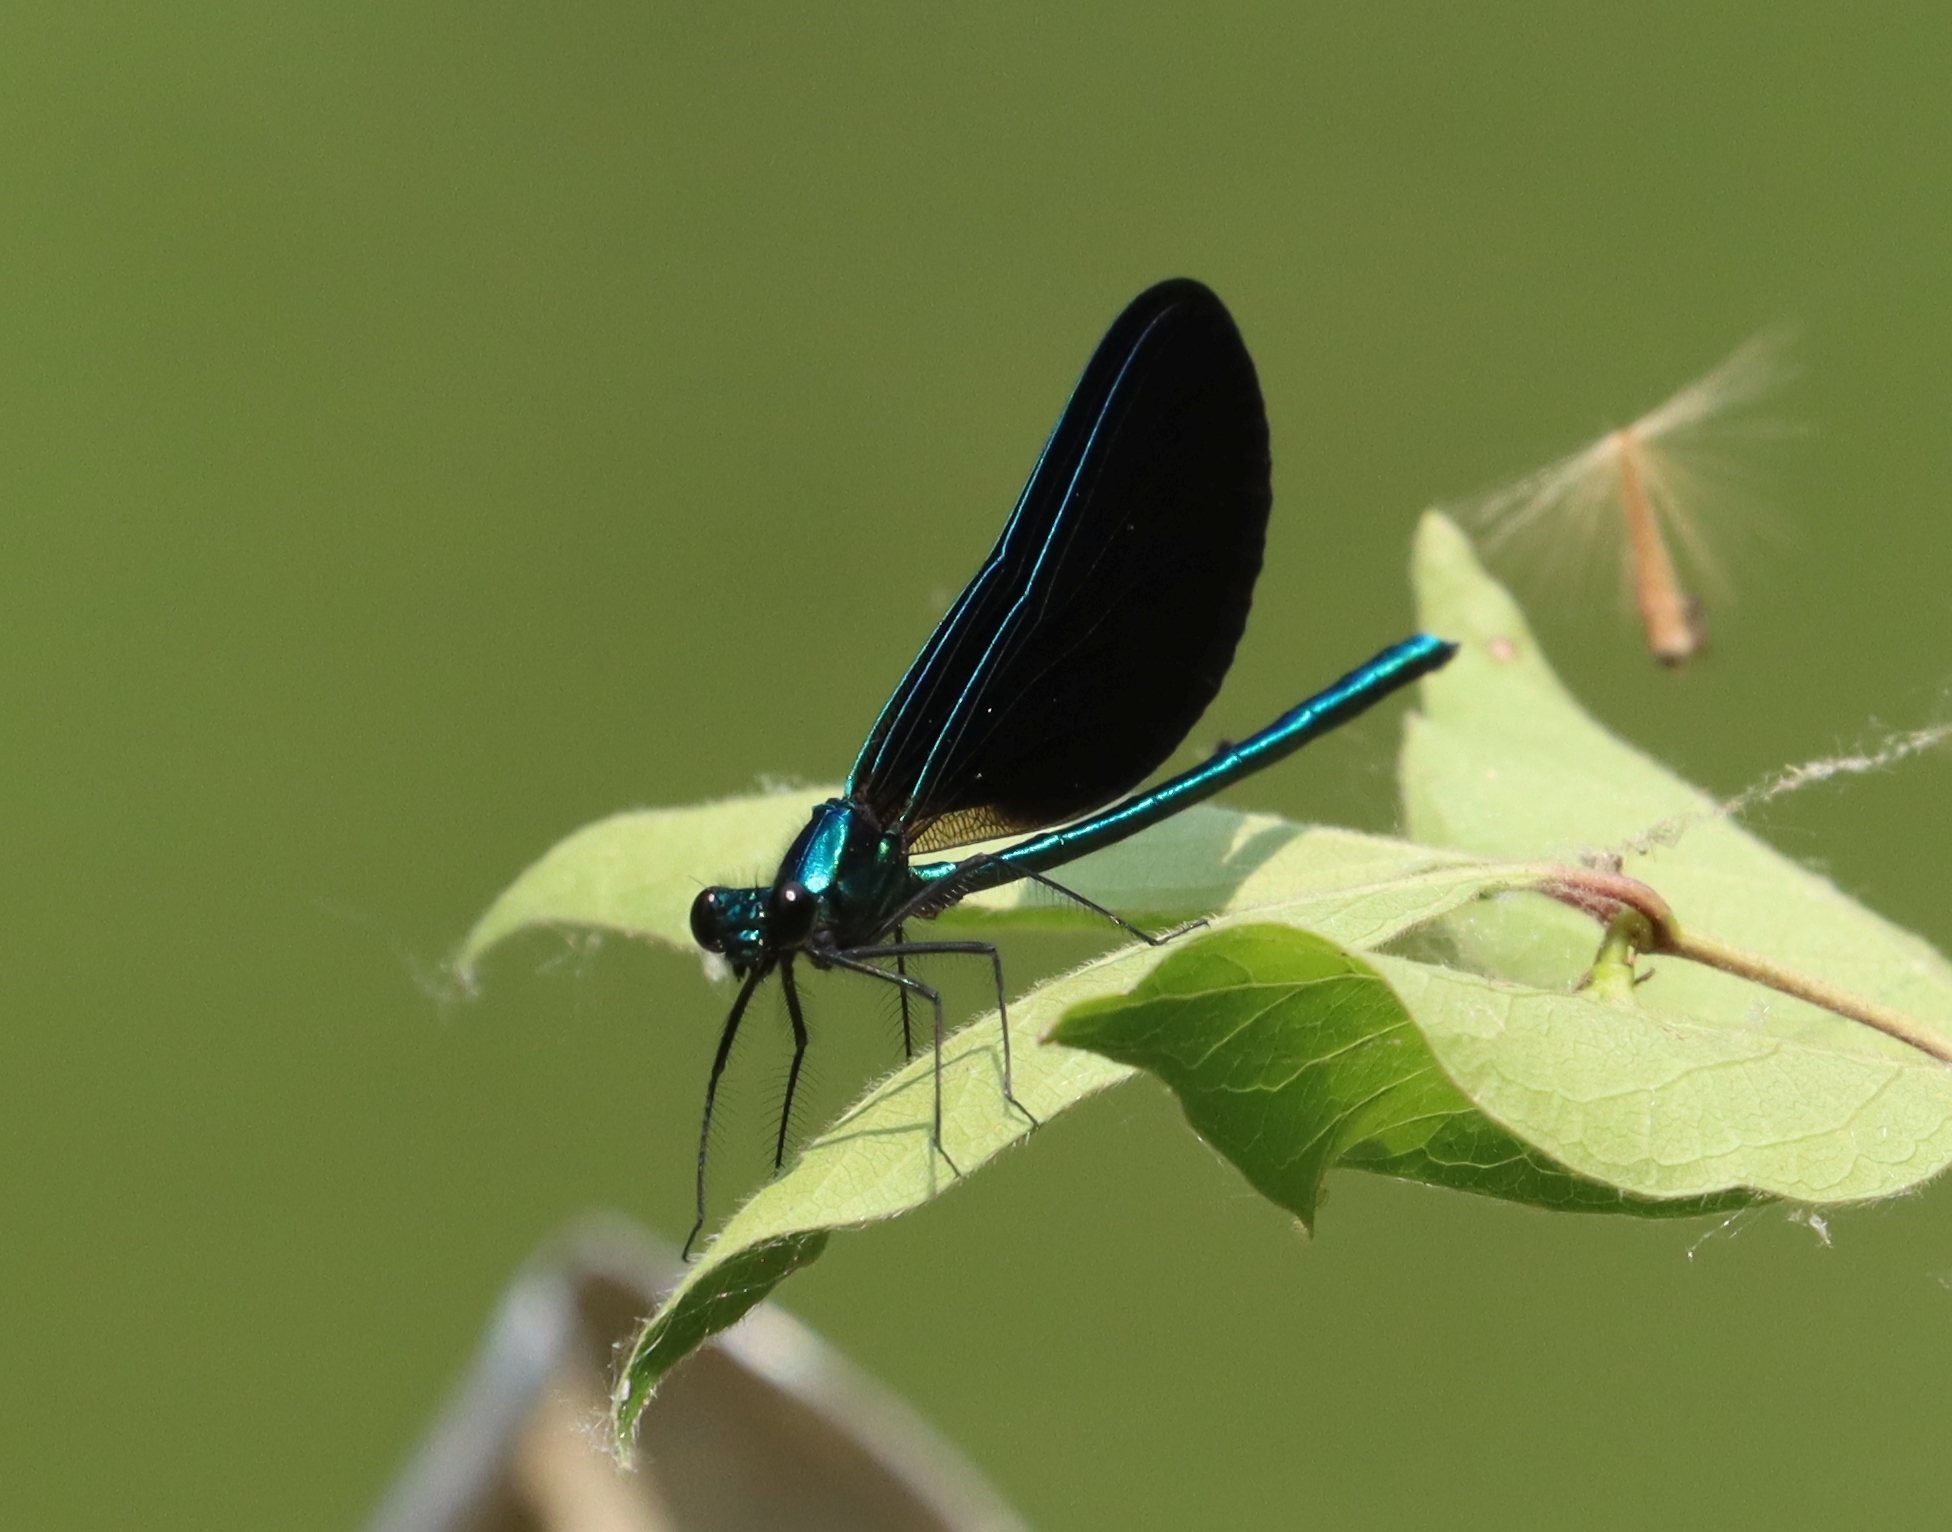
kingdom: Animalia
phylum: Arthropoda
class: Insecta
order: Odonata
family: Calopterygidae
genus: Calopteryx
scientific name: Calopteryx maculata
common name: Ebony jewelwing
